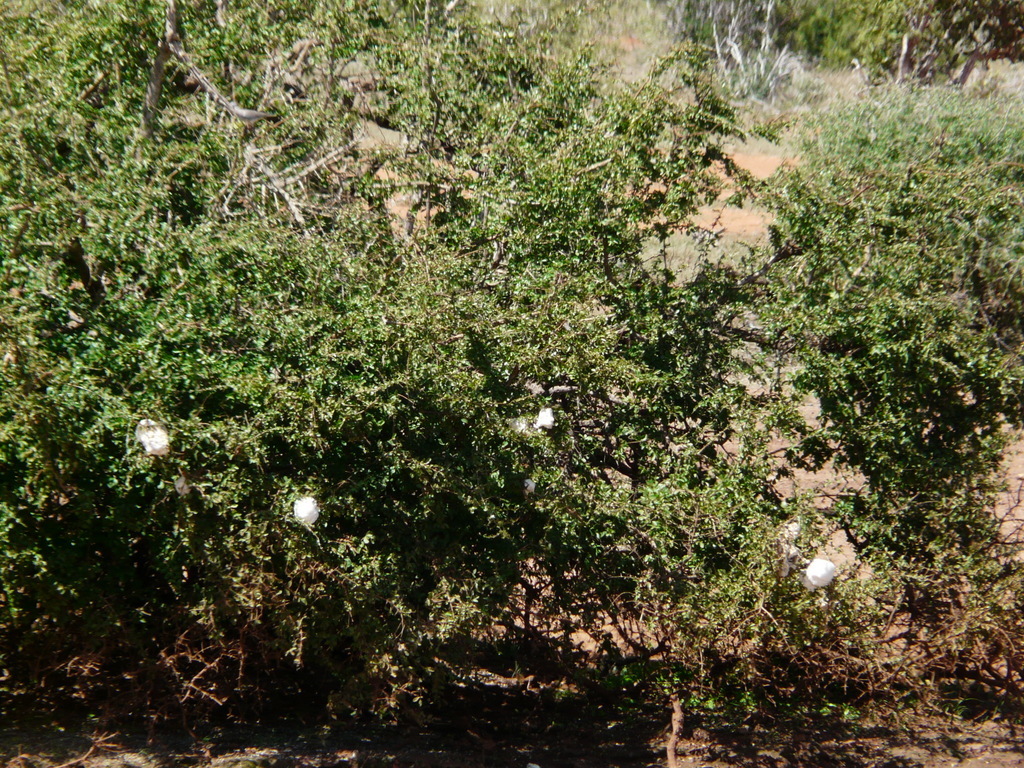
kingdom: Animalia
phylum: Chordata
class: Amphibia
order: Anura
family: Rhacophoridae
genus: Chiromantis
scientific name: Chiromantis petersii
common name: Central foam-nest tree frog
